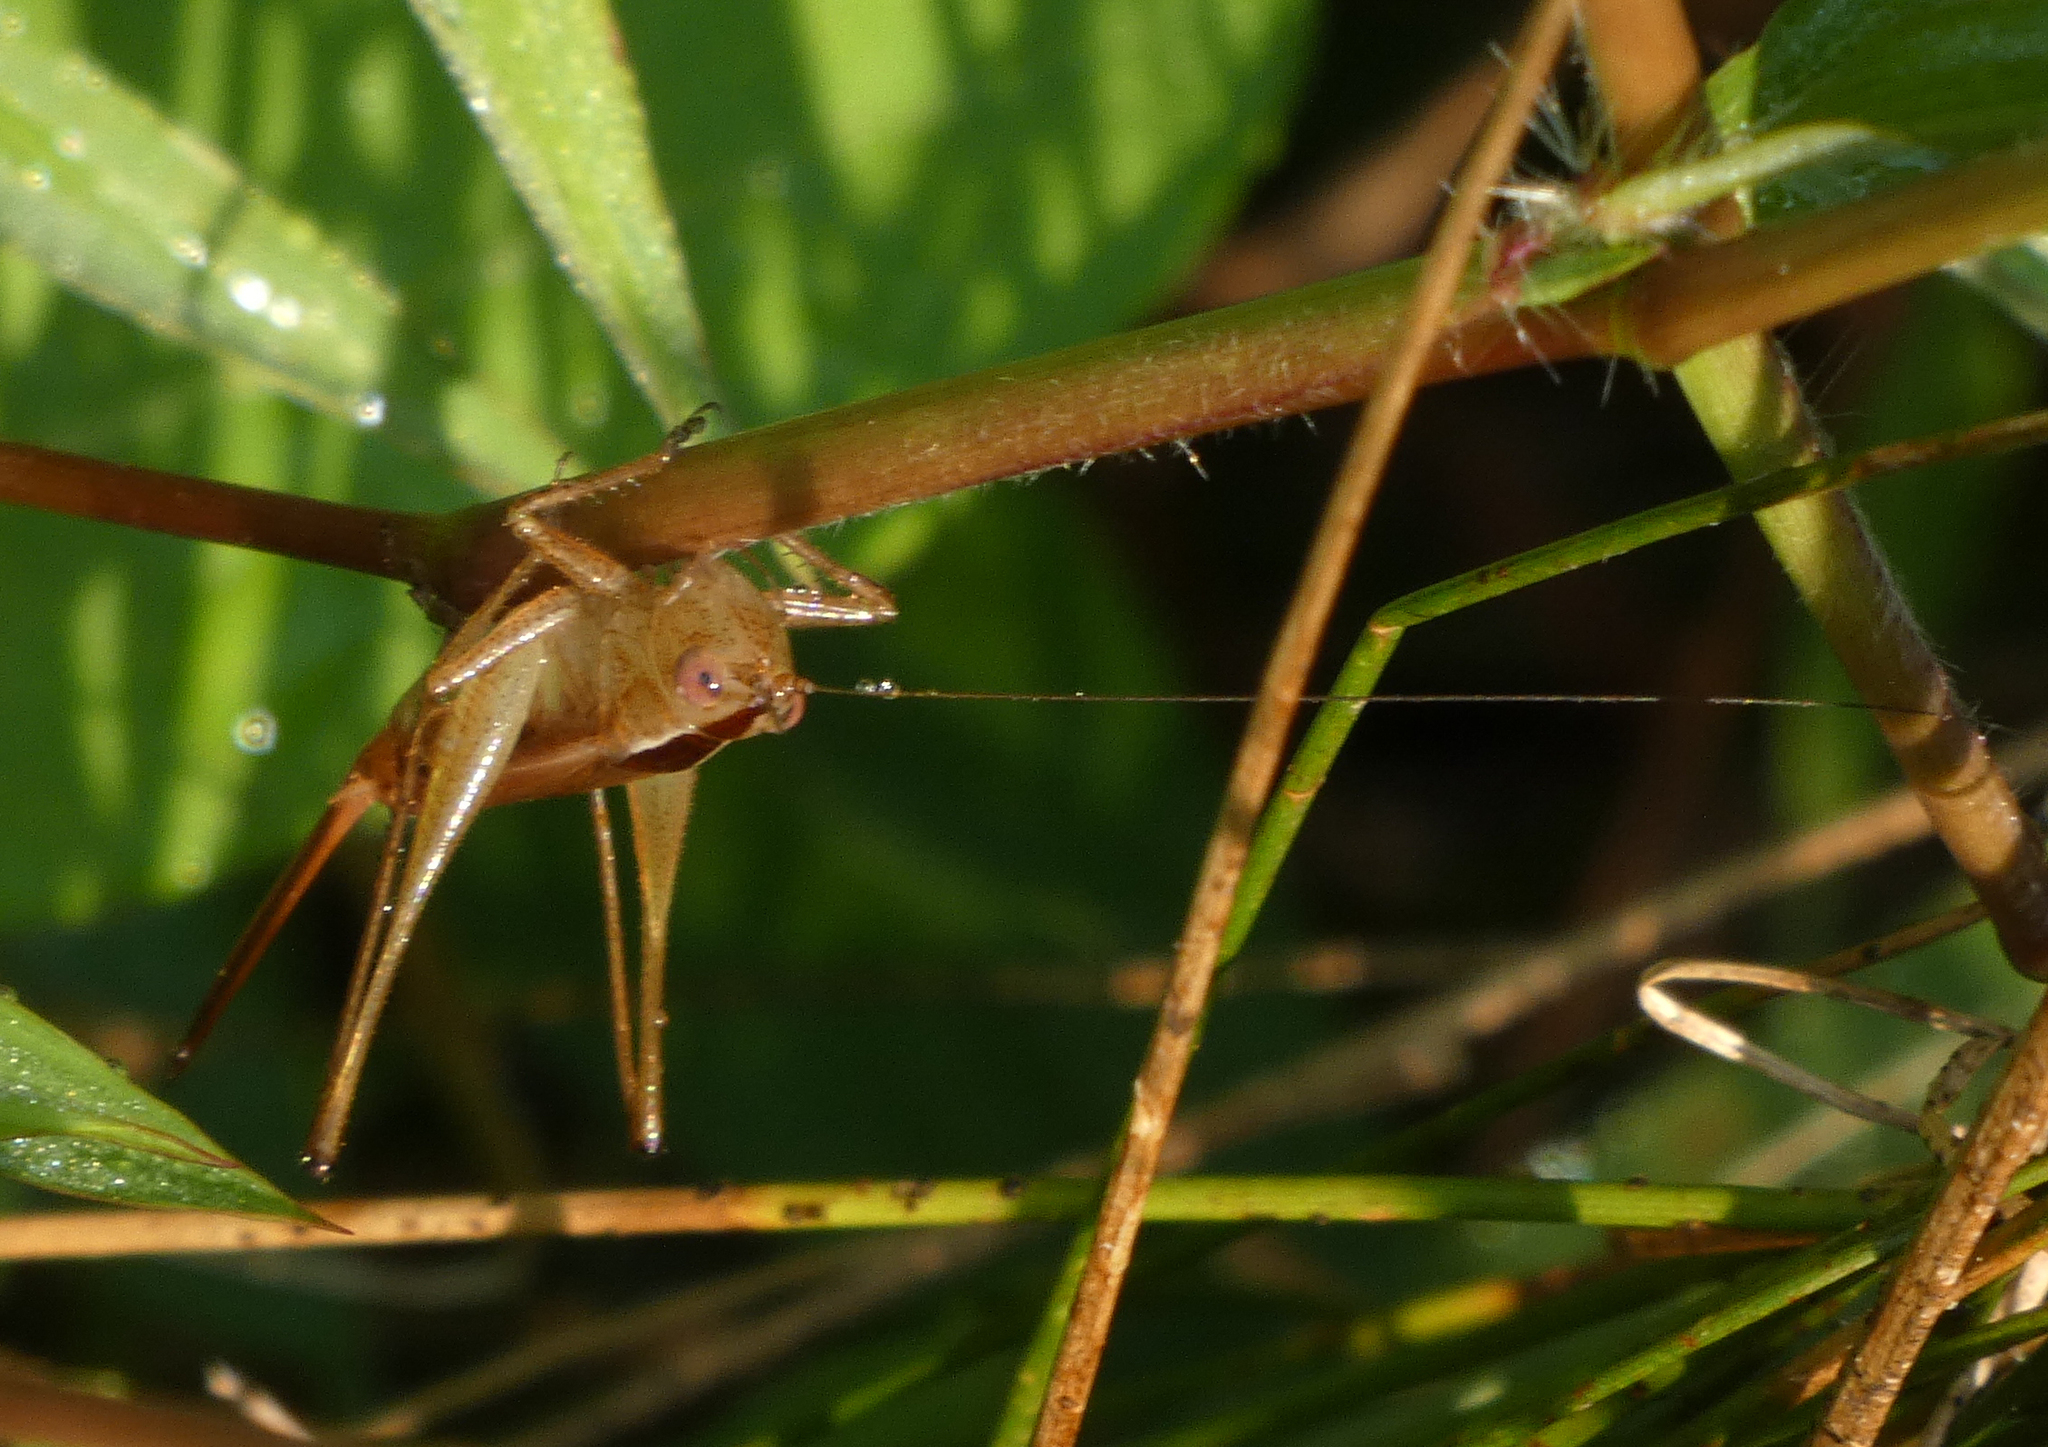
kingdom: Animalia
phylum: Arthropoda
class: Insecta
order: Orthoptera
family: Tettigoniidae
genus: Conocephalus
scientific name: Conocephalus brevipennis
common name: Short-winged meadow katydid
